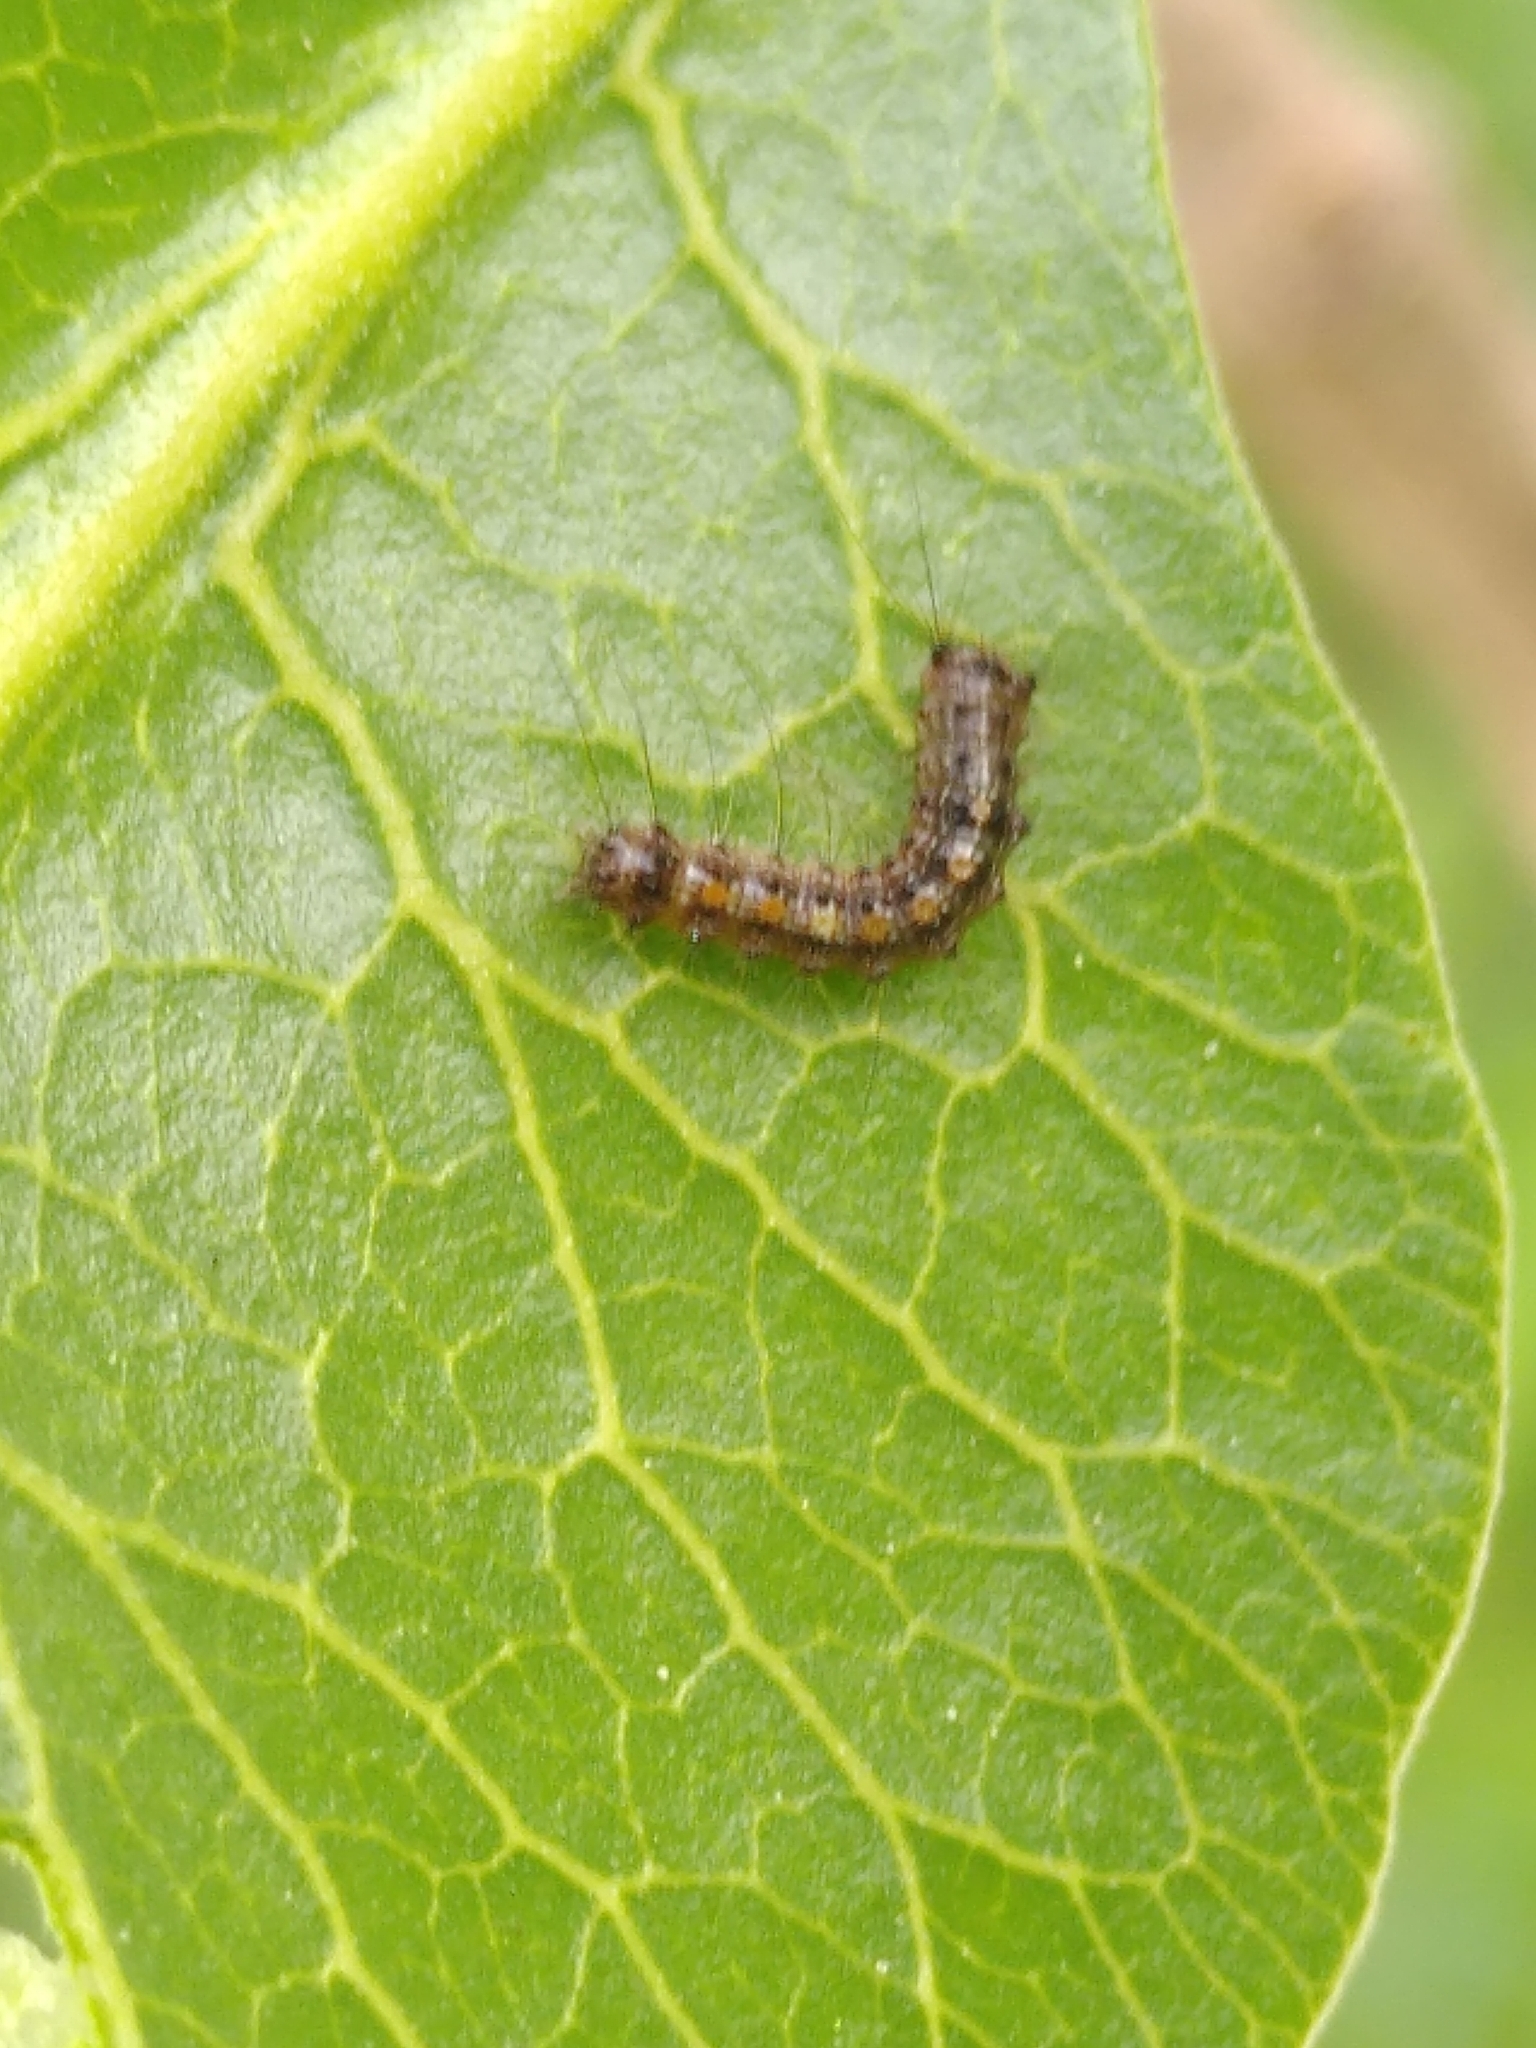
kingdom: Animalia
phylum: Arthropoda
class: Insecta
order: Lepidoptera
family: Erebidae
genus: Lymantria
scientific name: Lymantria dispar
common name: Gypsy moth
